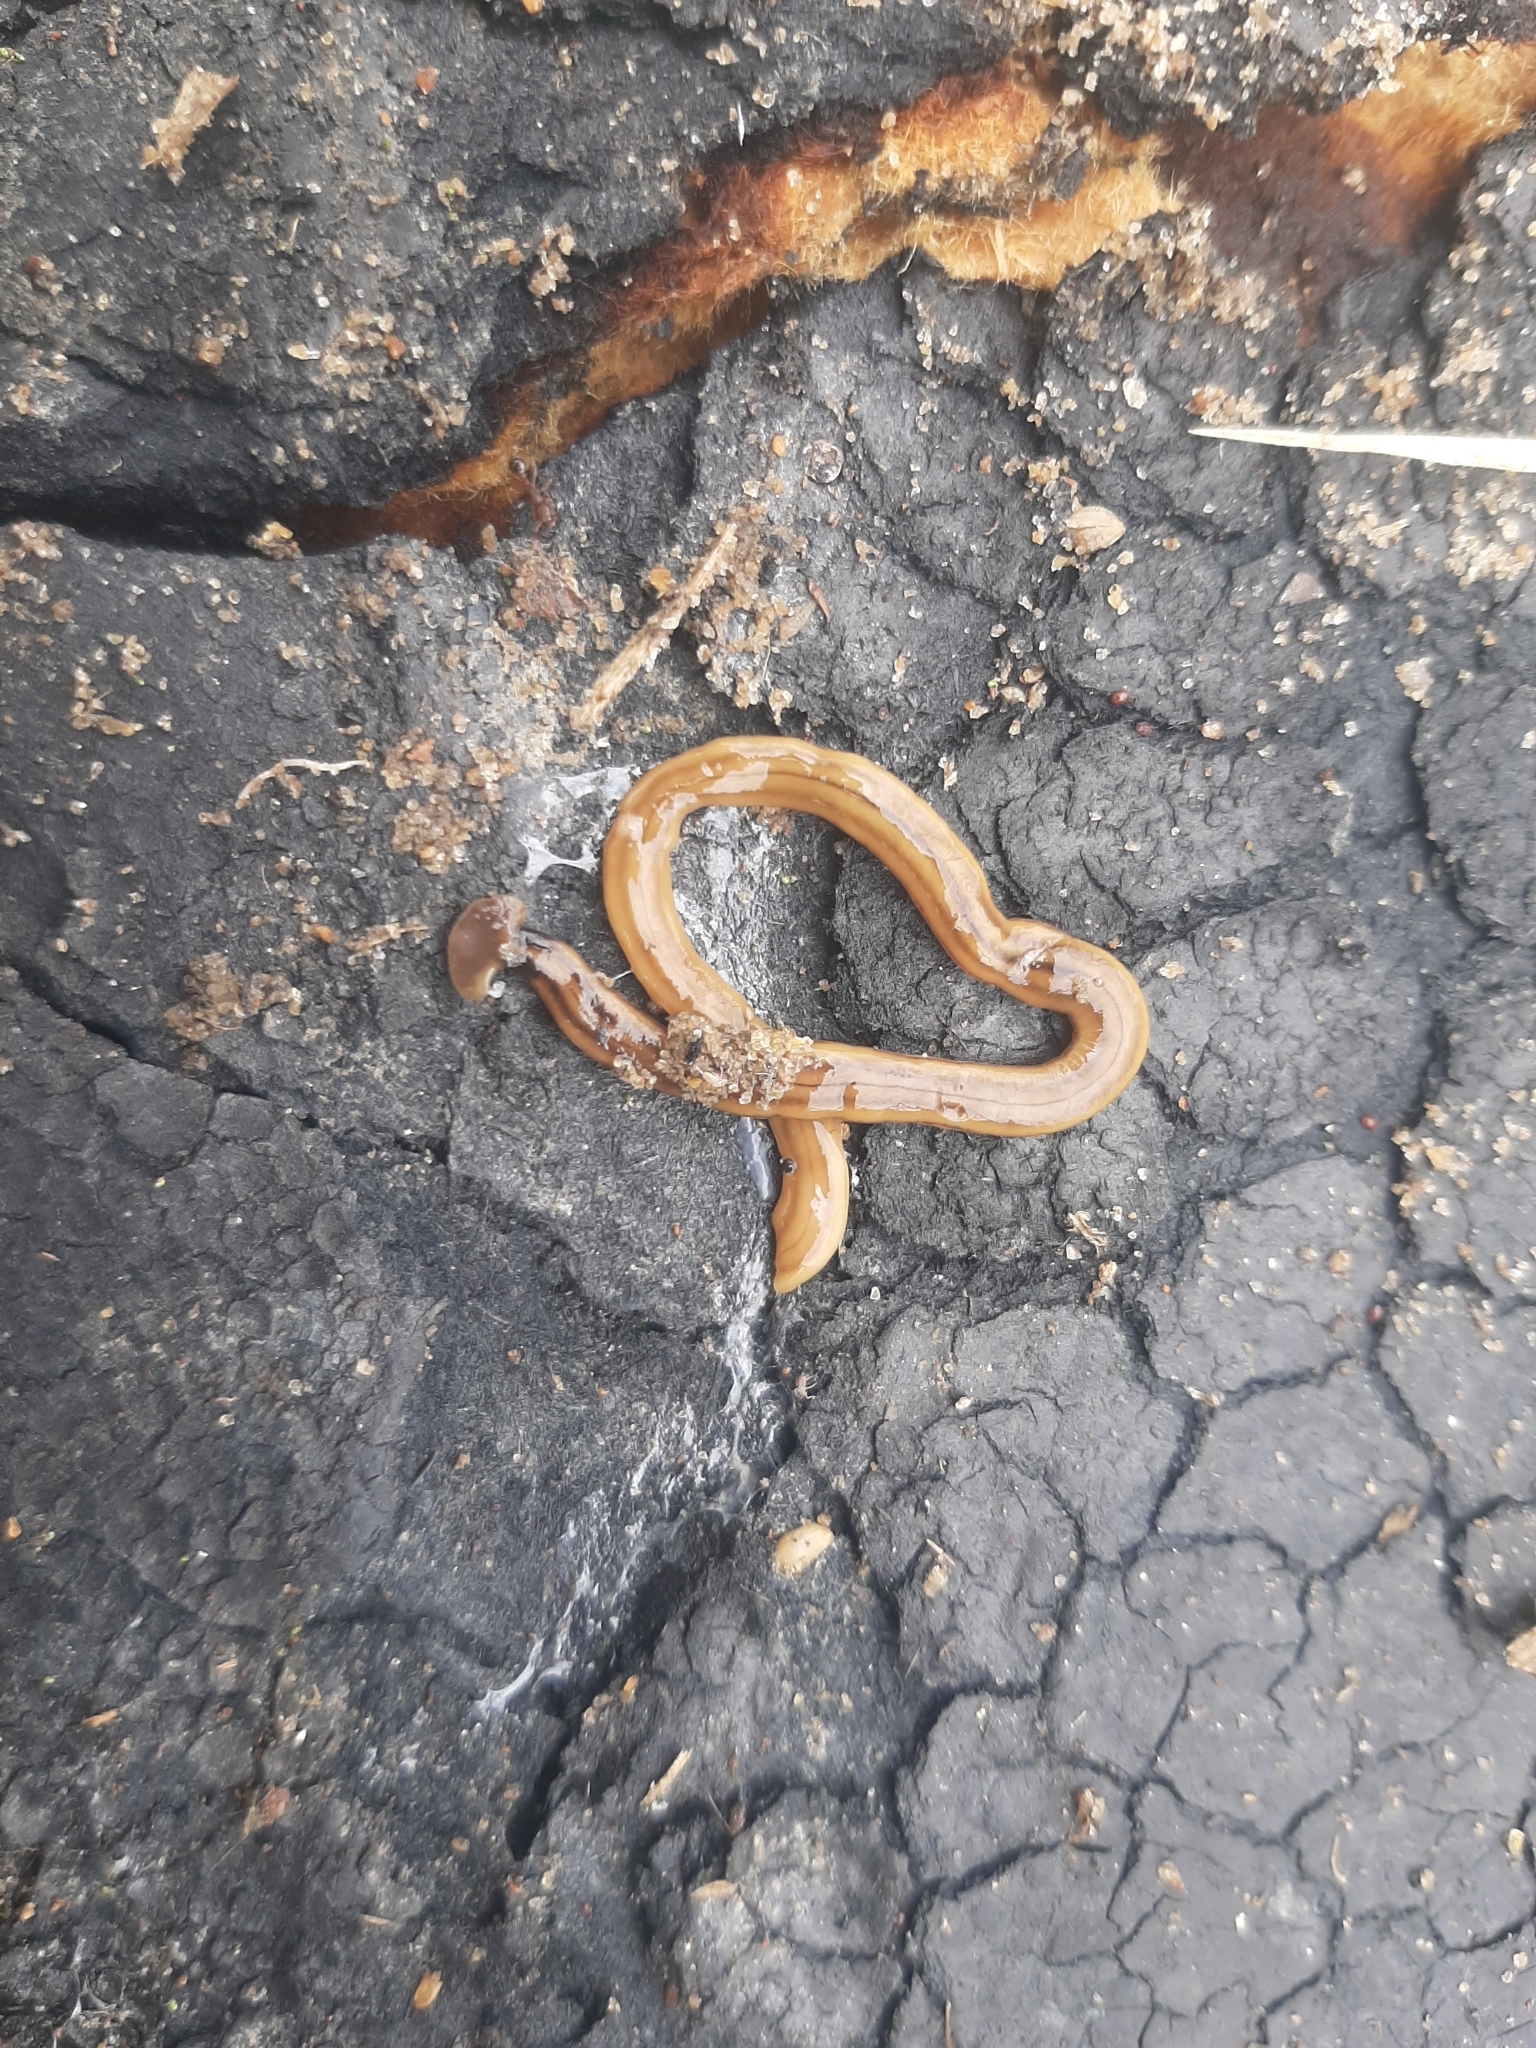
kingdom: Animalia
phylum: Platyhelminthes
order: Tricladida
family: Geoplanidae
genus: Bipalium
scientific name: Bipalium kewense
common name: Hammerhead flatworm
